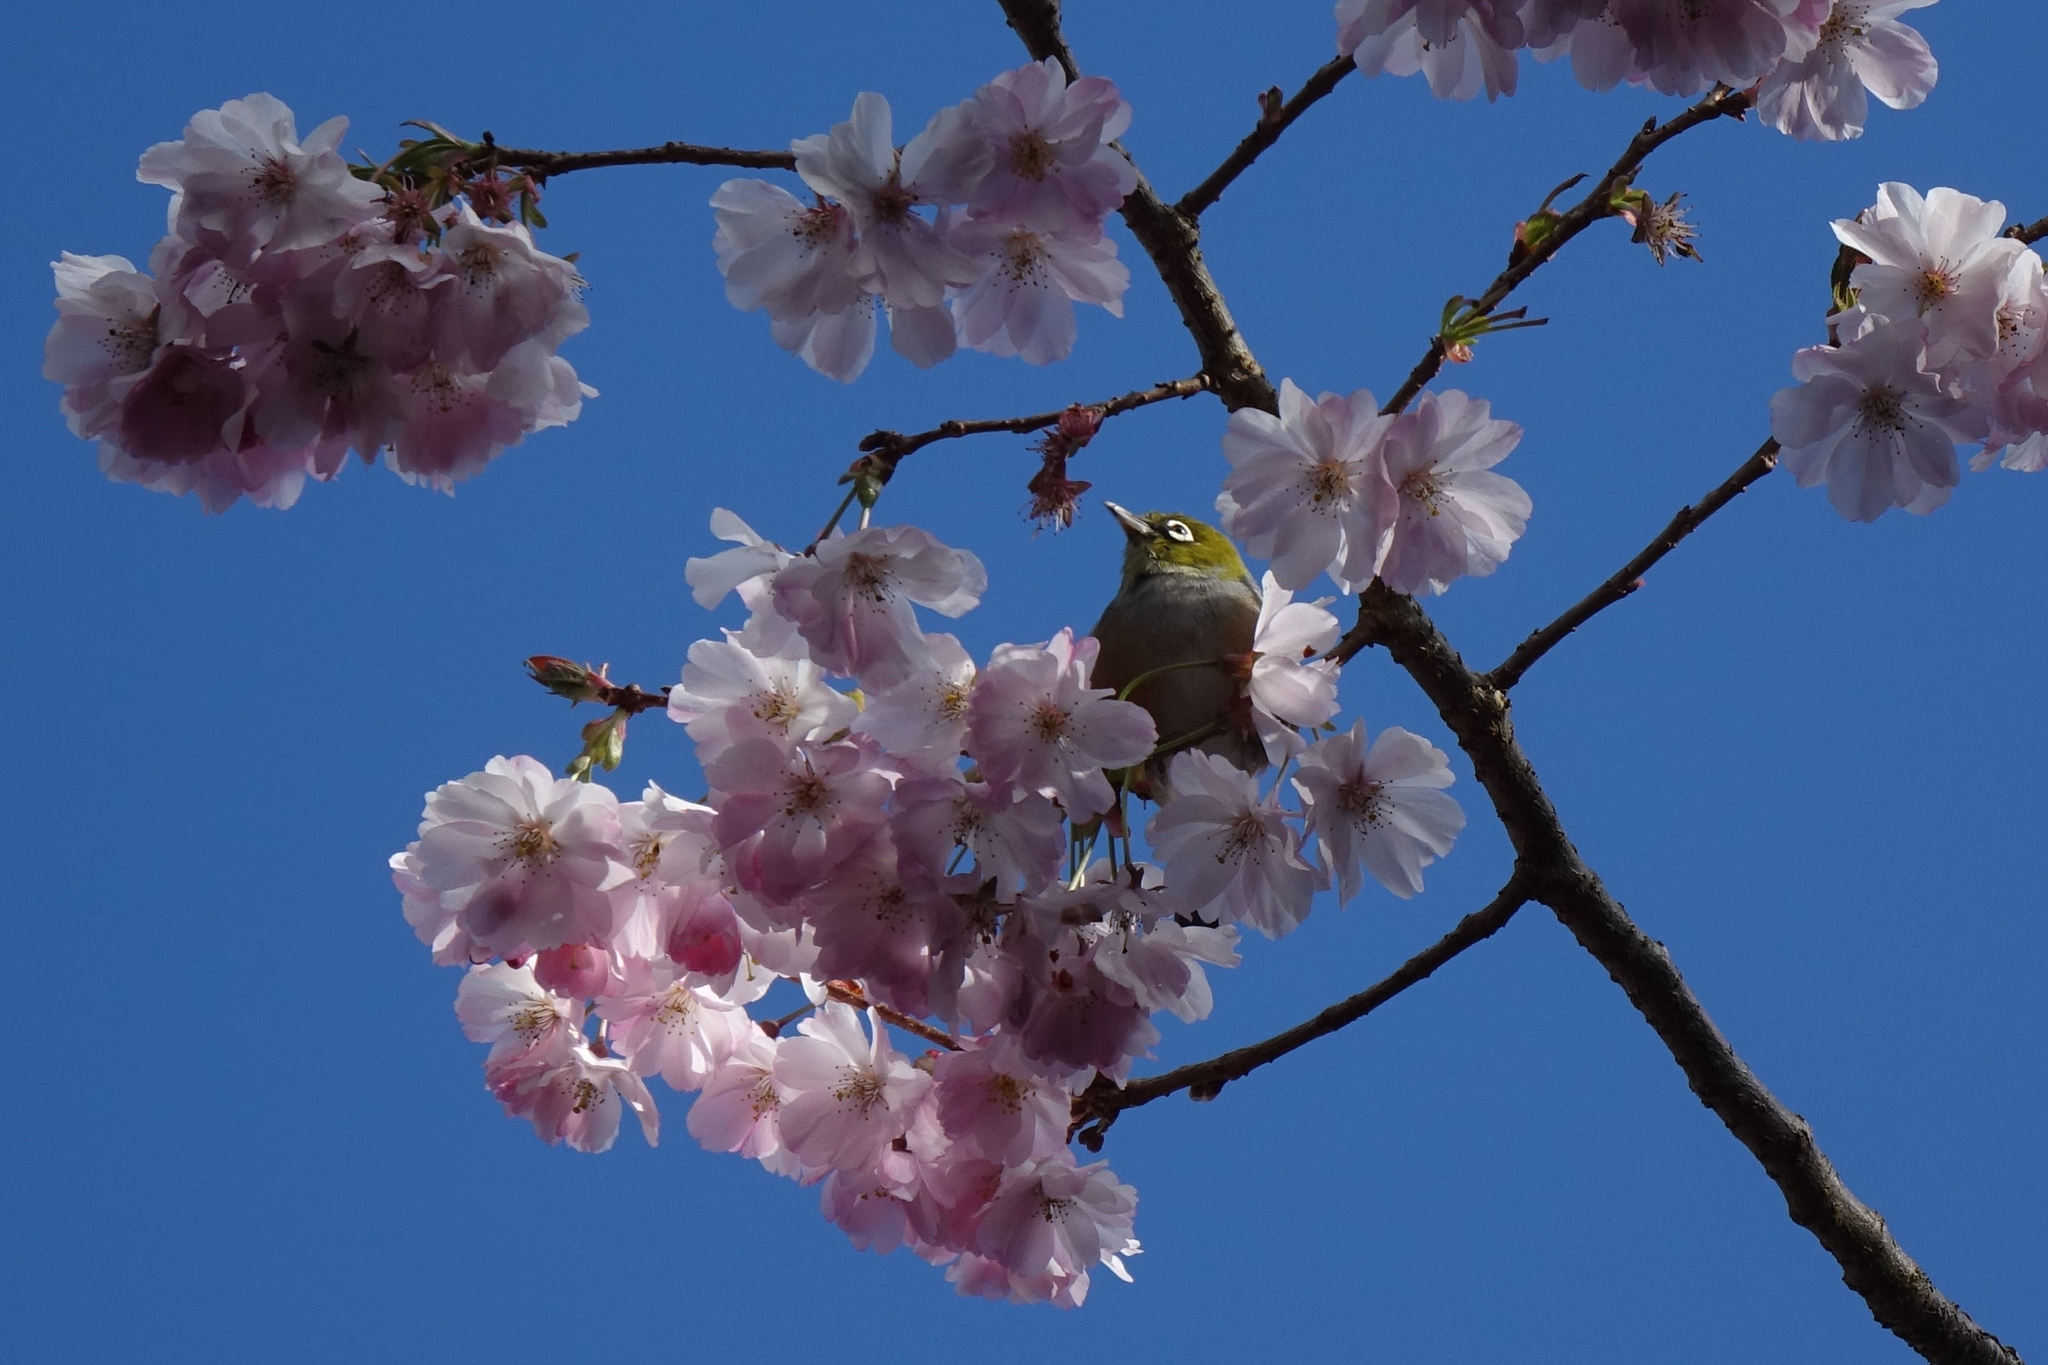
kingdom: Animalia
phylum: Chordata
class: Aves
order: Passeriformes
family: Zosteropidae
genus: Zosterops
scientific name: Zosterops lateralis
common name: Silvereye
